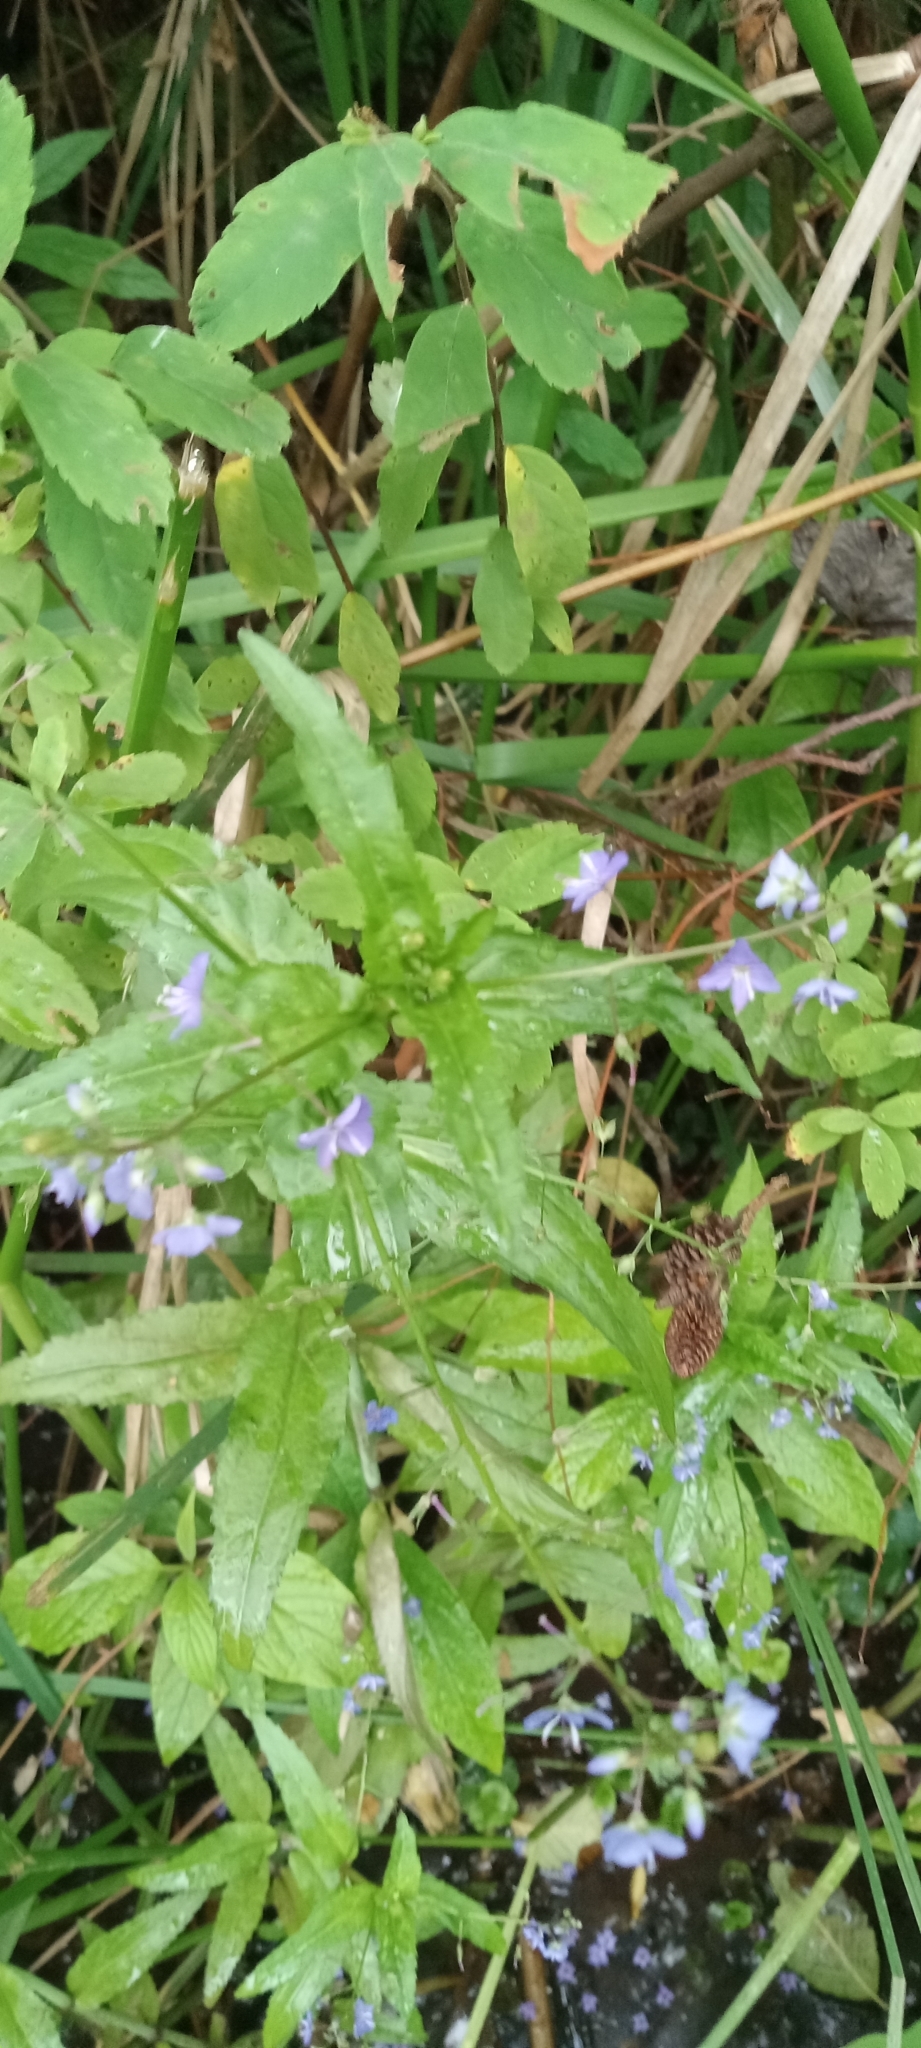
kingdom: Plantae
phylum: Tracheophyta
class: Magnoliopsida
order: Lamiales
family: Plantaginaceae
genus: Veronica
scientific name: Veronica americana
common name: American brooklime
